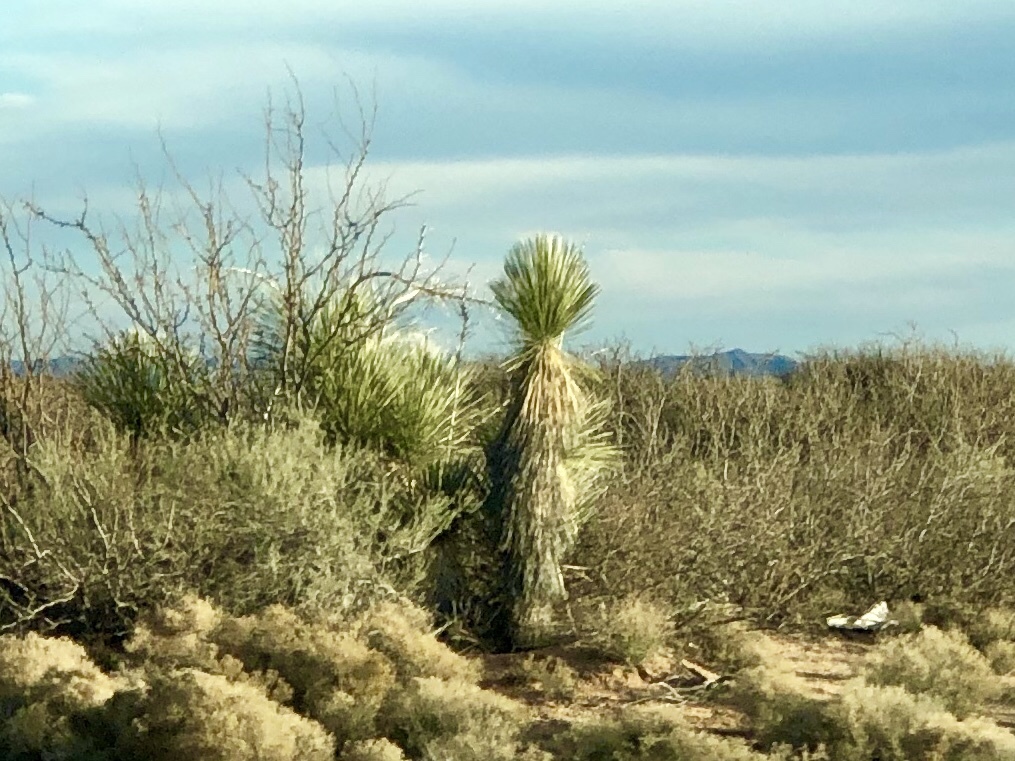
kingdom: Plantae
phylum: Tracheophyta
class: Liliopsida
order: Asparagales
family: Asparagaceae
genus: Yucca
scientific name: Yucca elata
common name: Palmella
